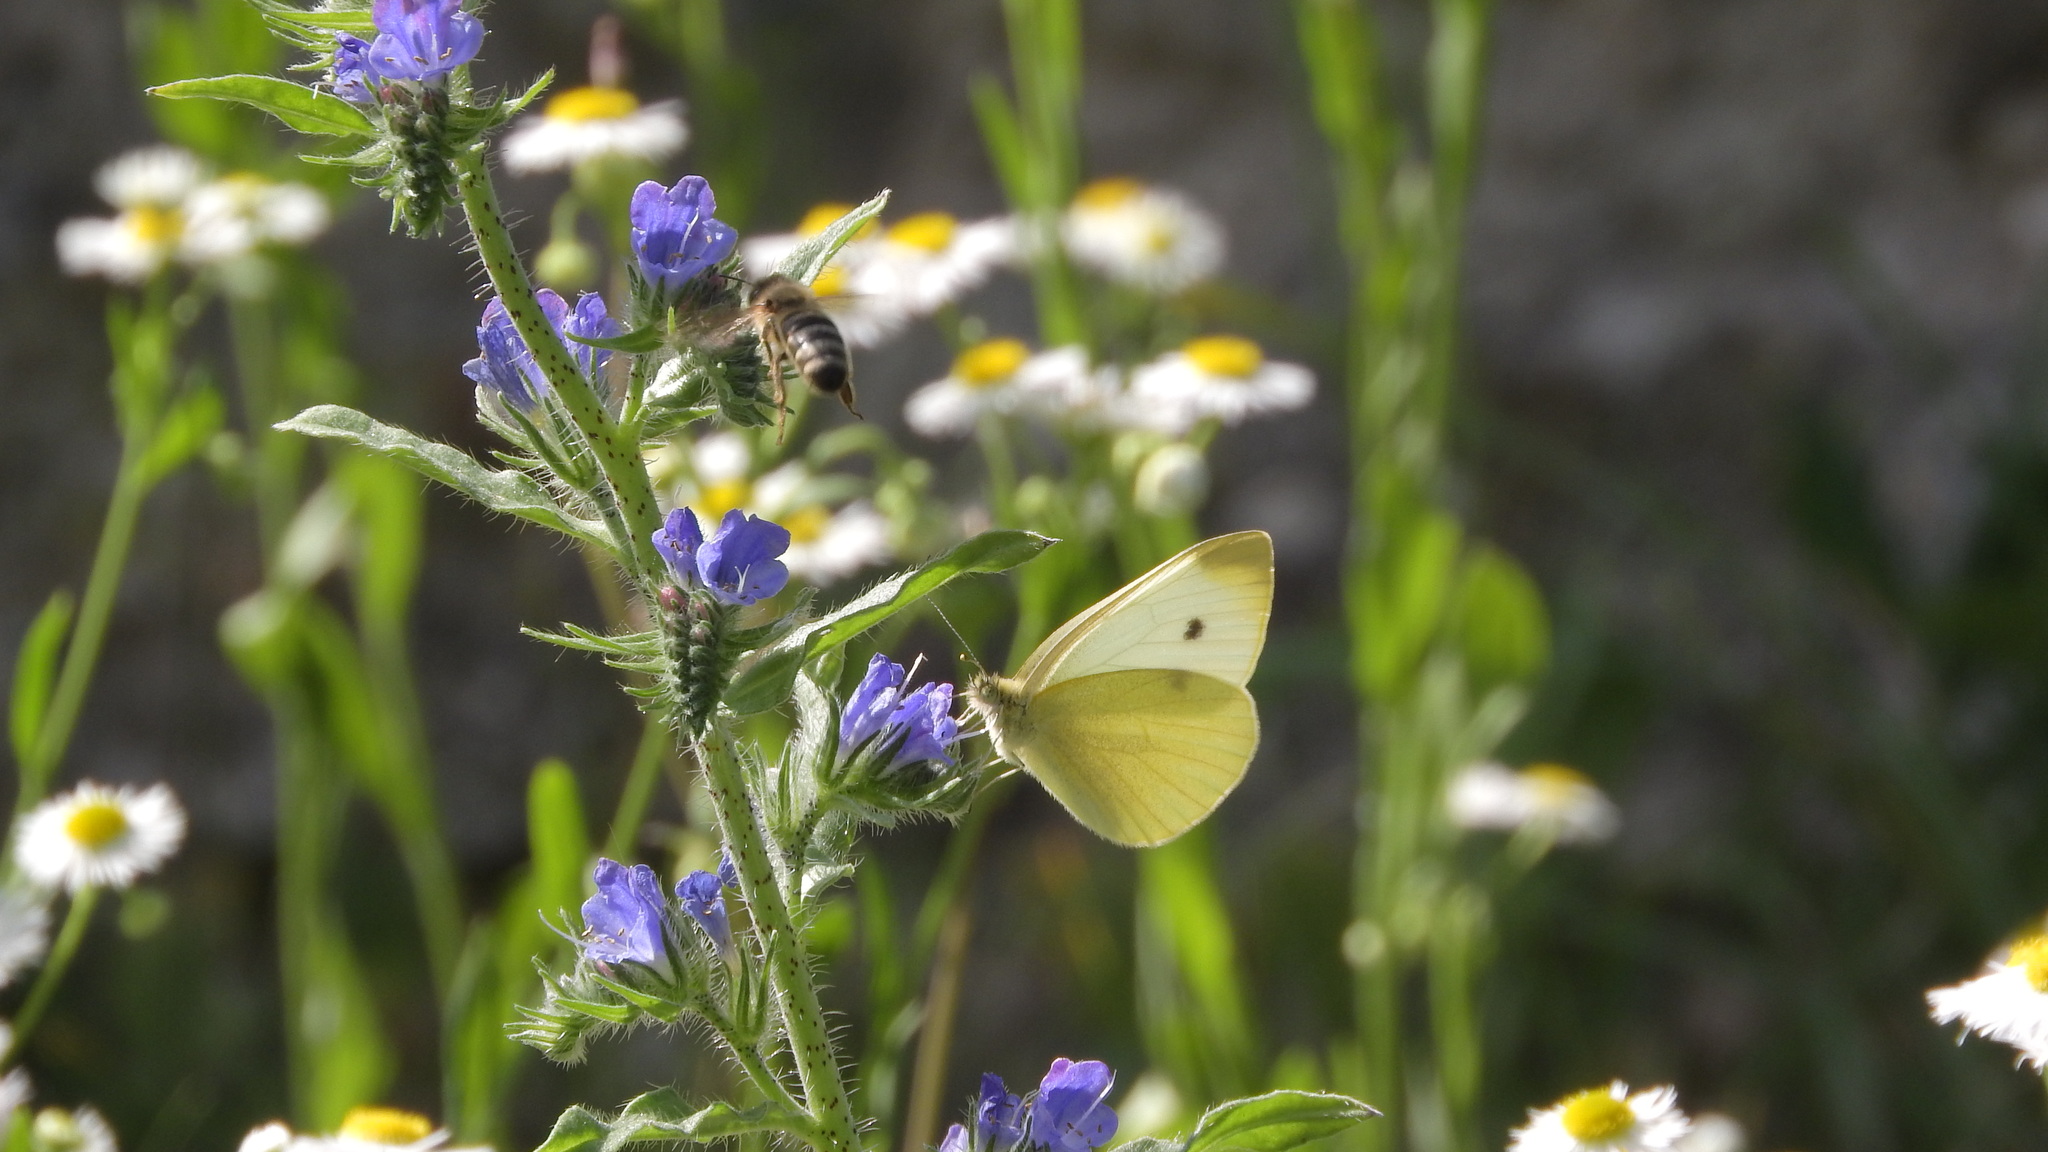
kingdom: Animalia
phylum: Arthropoda
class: Insecta
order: Lepidoptera
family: Pieridae
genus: Pieris
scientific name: Pieris rapae
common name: Small white
